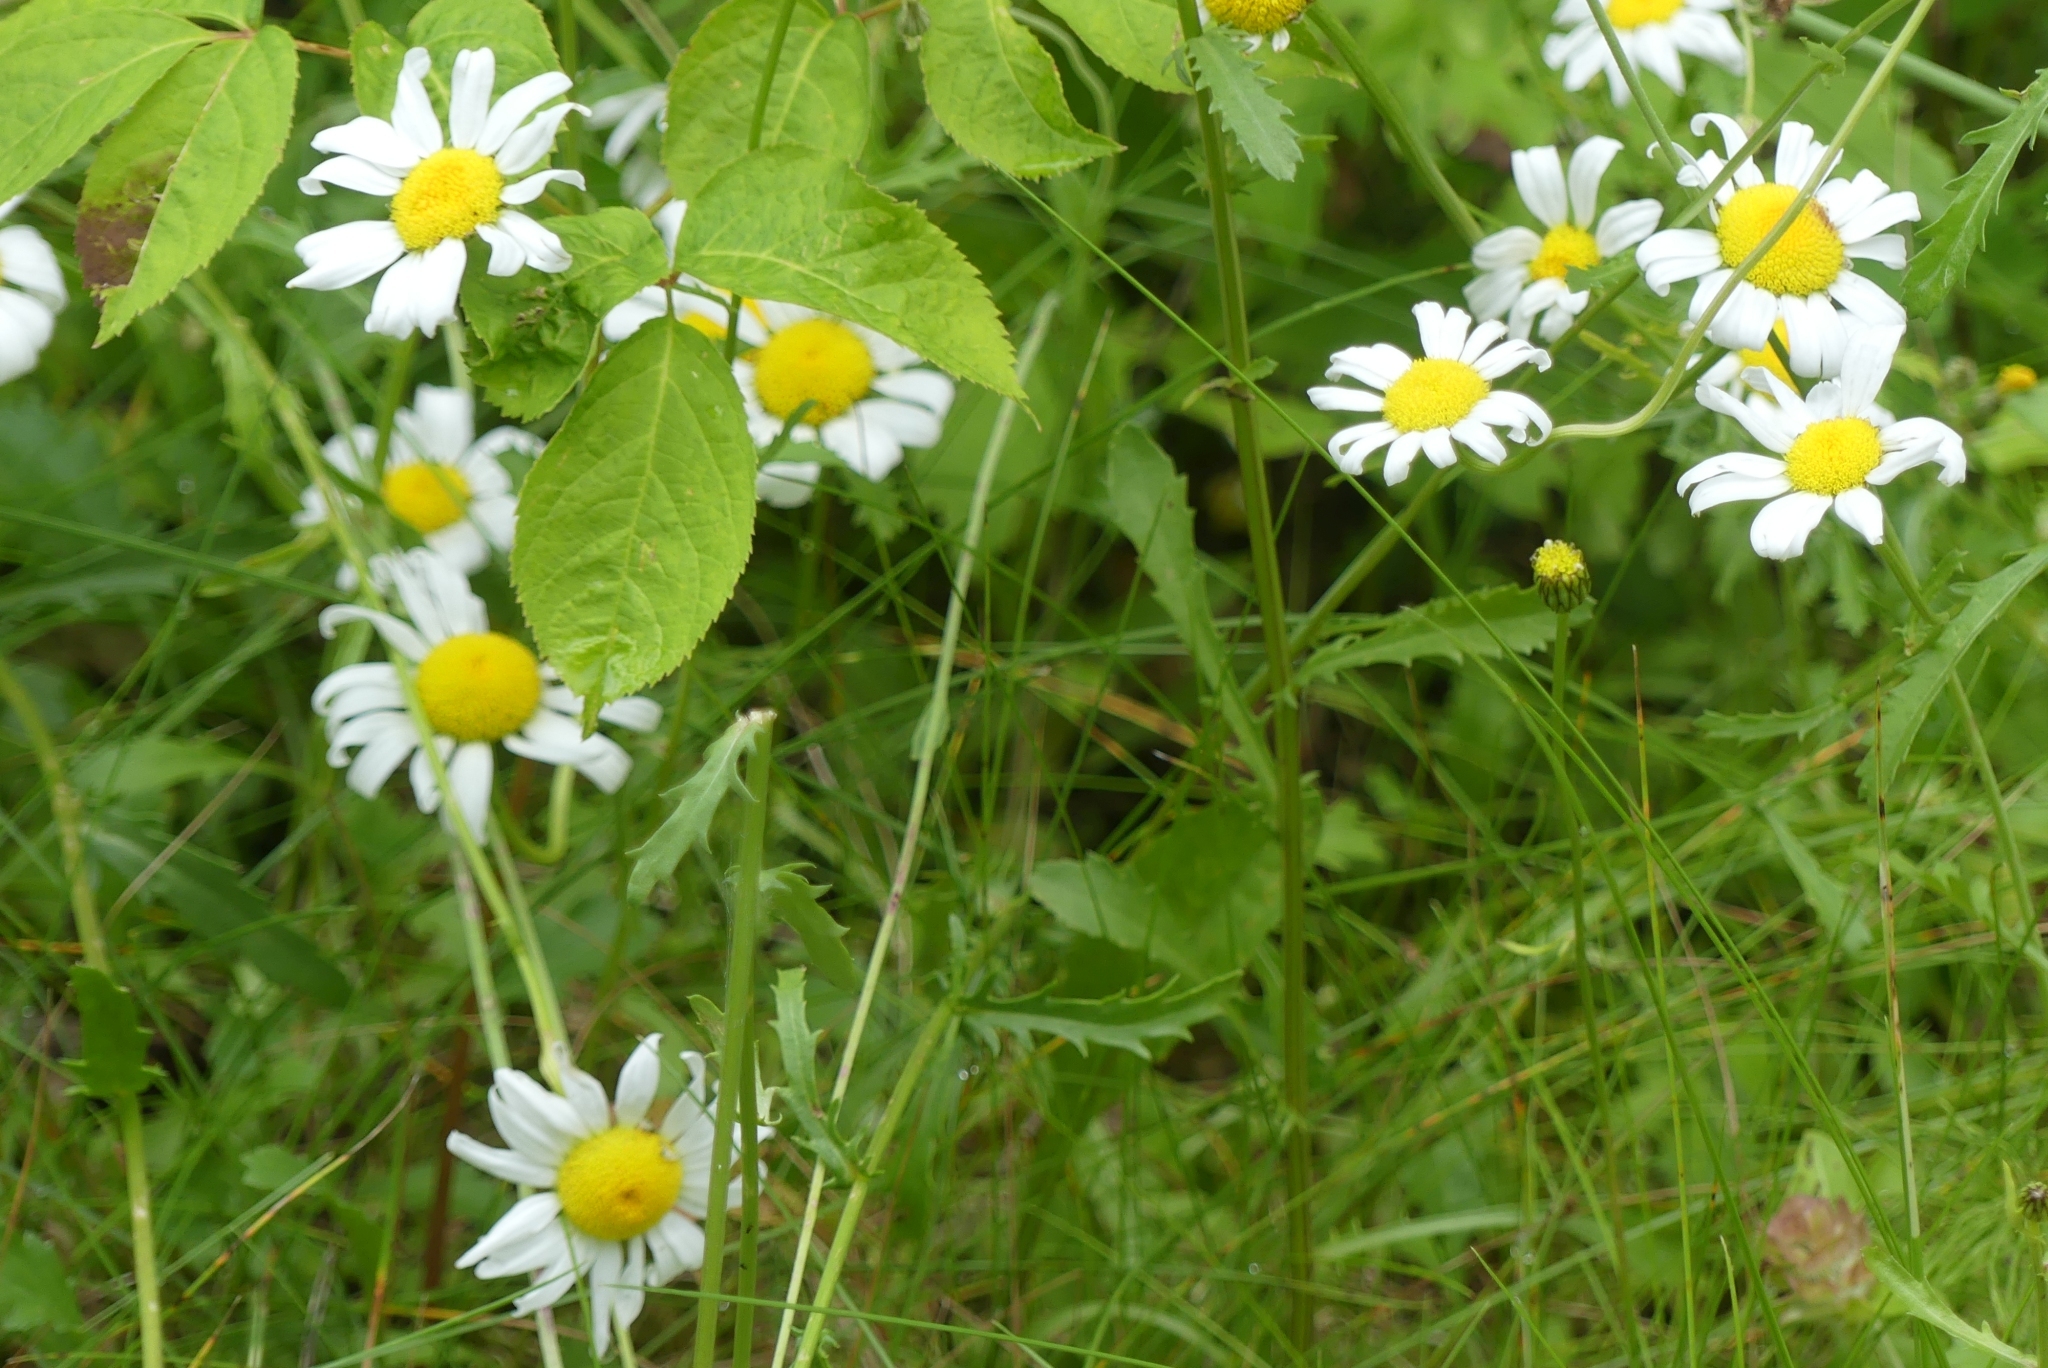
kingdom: Plantae
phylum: Tracheophyta
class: Magnoliopsida
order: Asterales
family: Asteraceae
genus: Leucanthemum
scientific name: Leucanthemum vulgare
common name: Oxeye daisy
